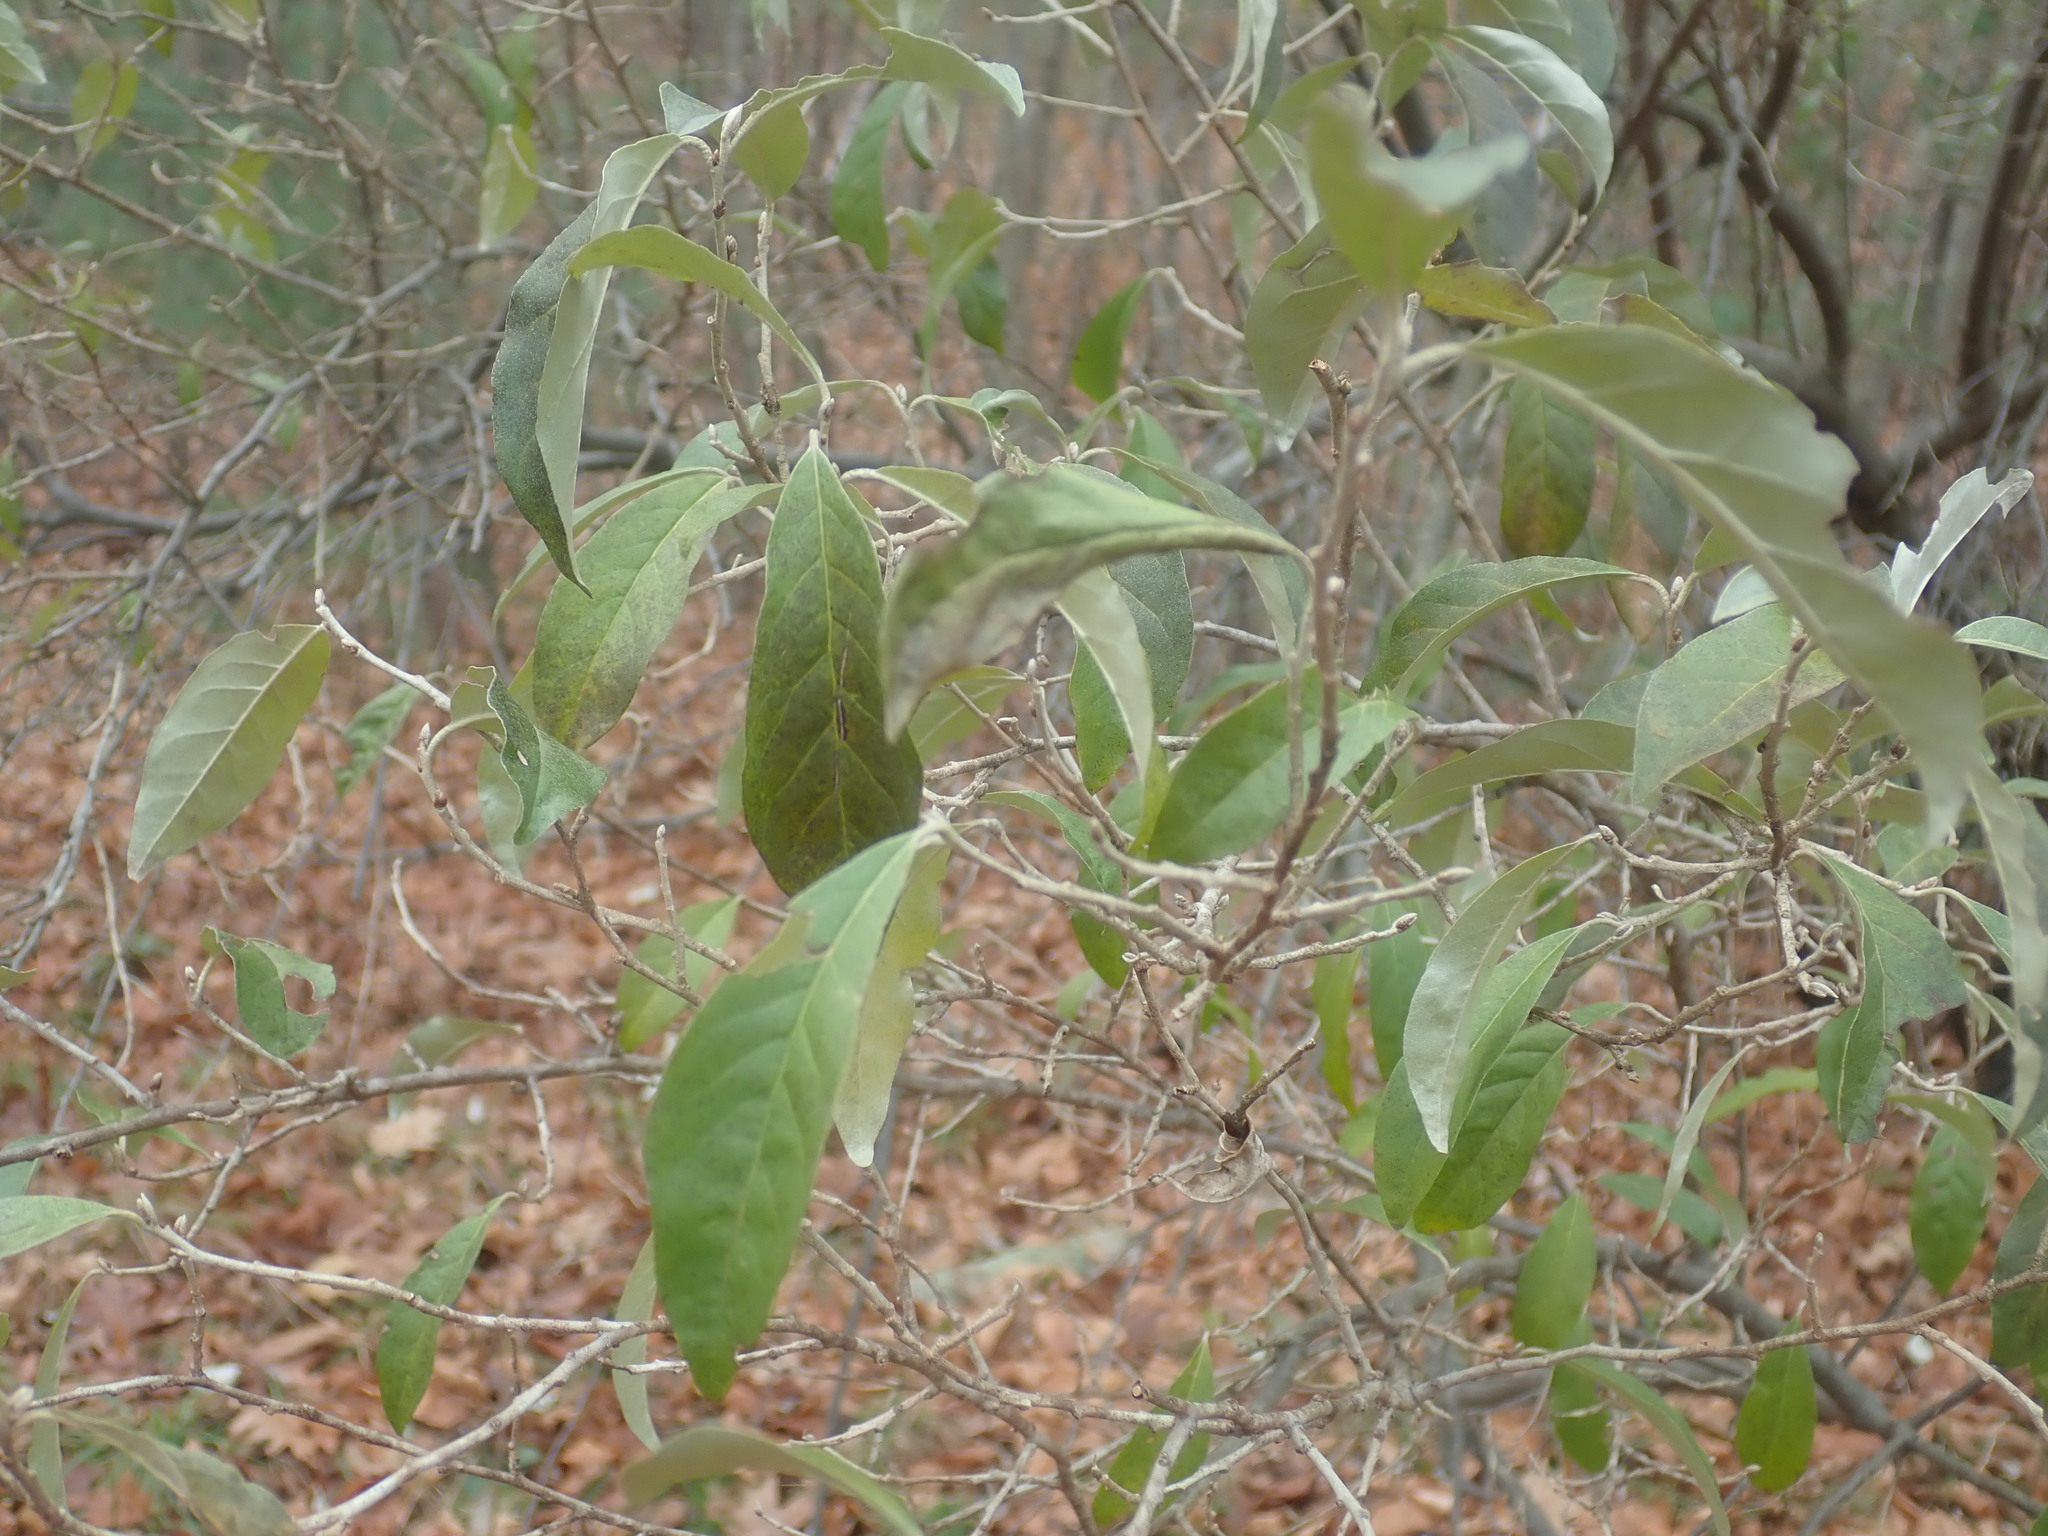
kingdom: Plantae
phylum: Tracheophyta
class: Magnoliopsida
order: Rosales
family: Elaeagnaceae
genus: Elaeagnus
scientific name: Elaeagnus umbellata
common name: Autumn olive
